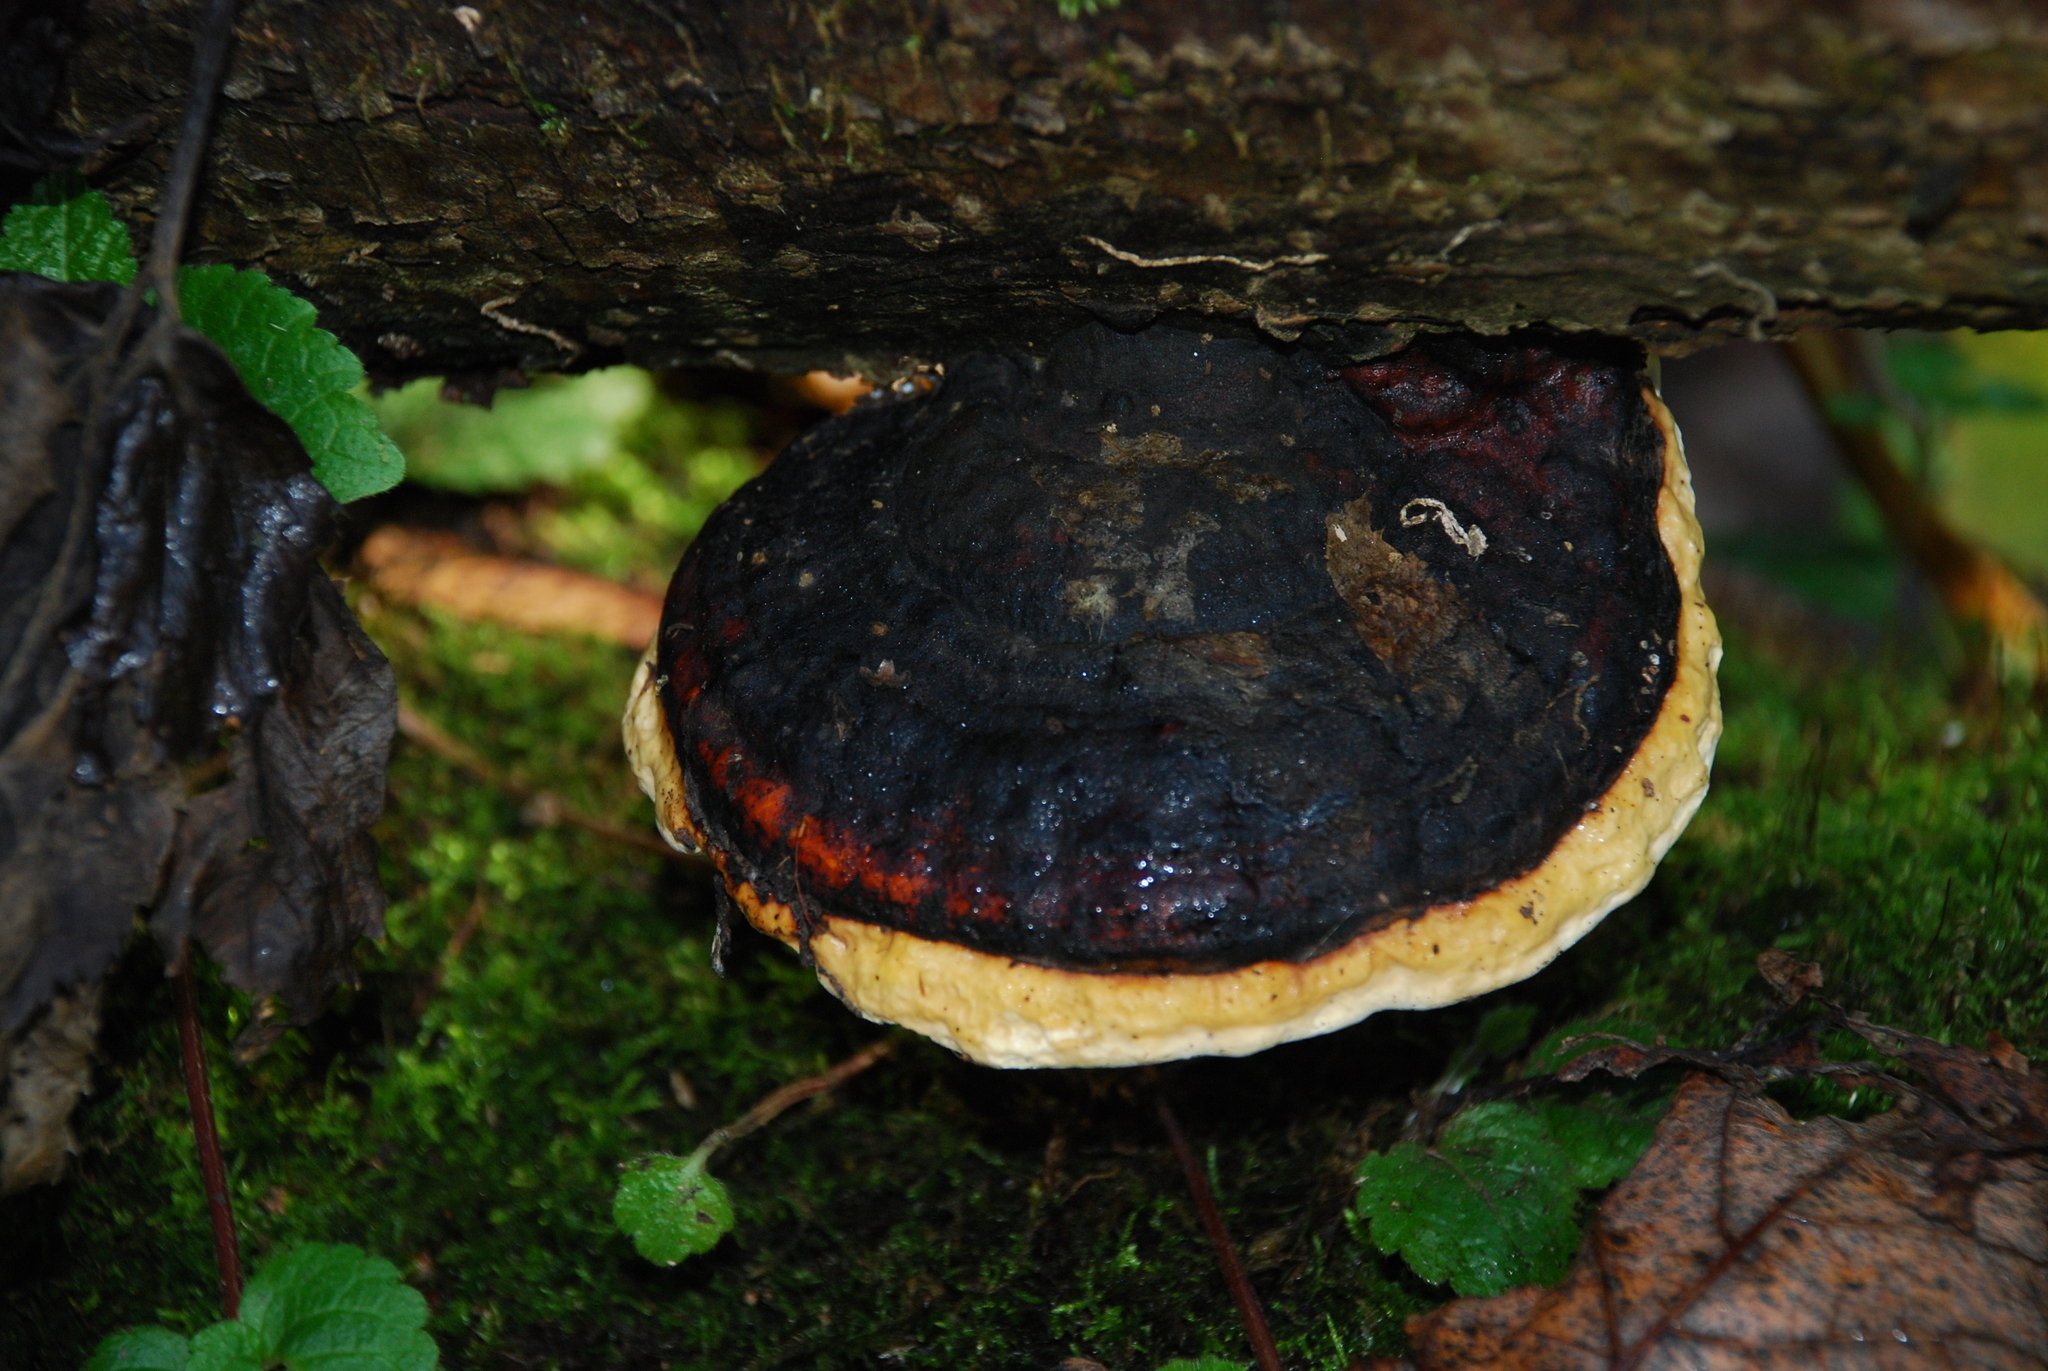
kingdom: Fungi
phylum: Basidiomycota
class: Agaricomycetes
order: Polyporales
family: Fomitopsidaceae
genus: Fomitopsis
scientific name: Fomitopsis pinicola
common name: Red-belted bracket
